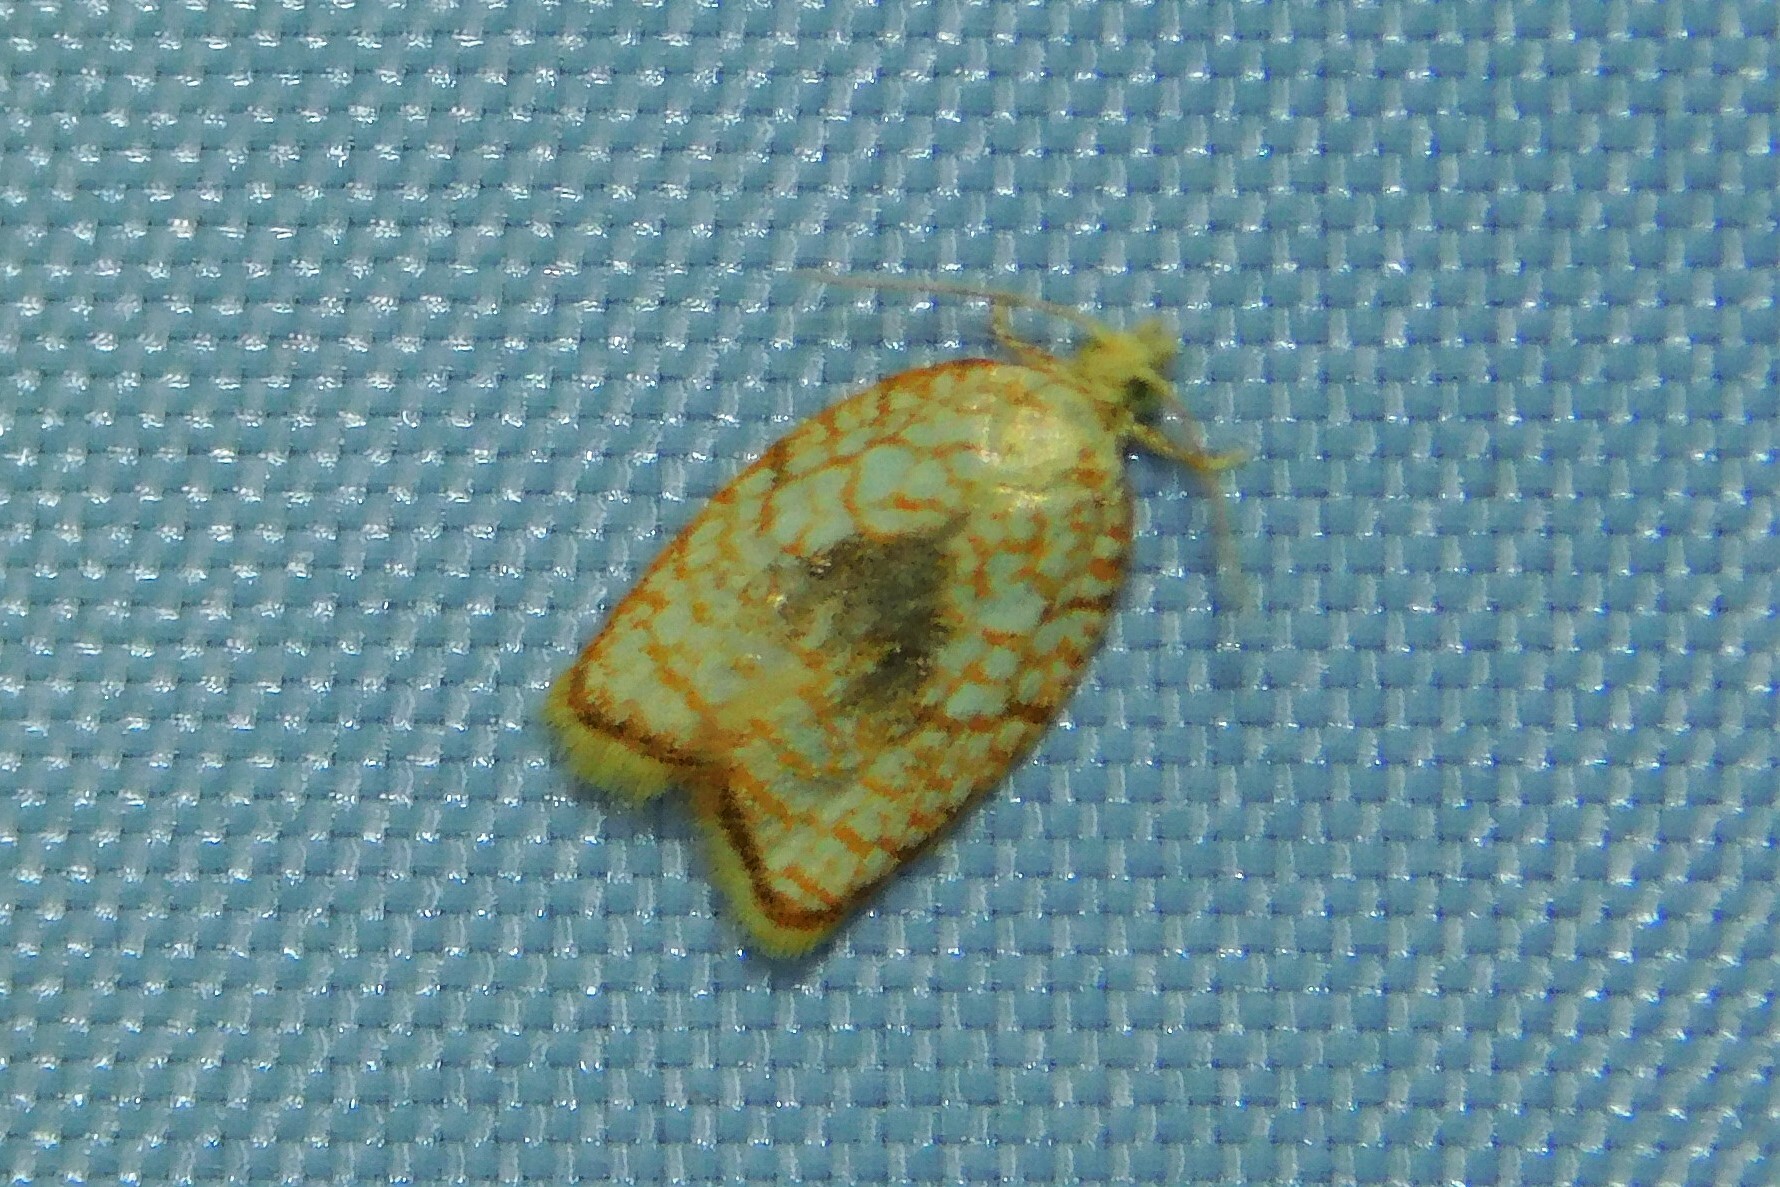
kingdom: Animalia
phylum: Arthropoda
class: Insecta
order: Lepidoptera
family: Tortricidae
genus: Acleris
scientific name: Acleris forsskaleana
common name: Maple button
